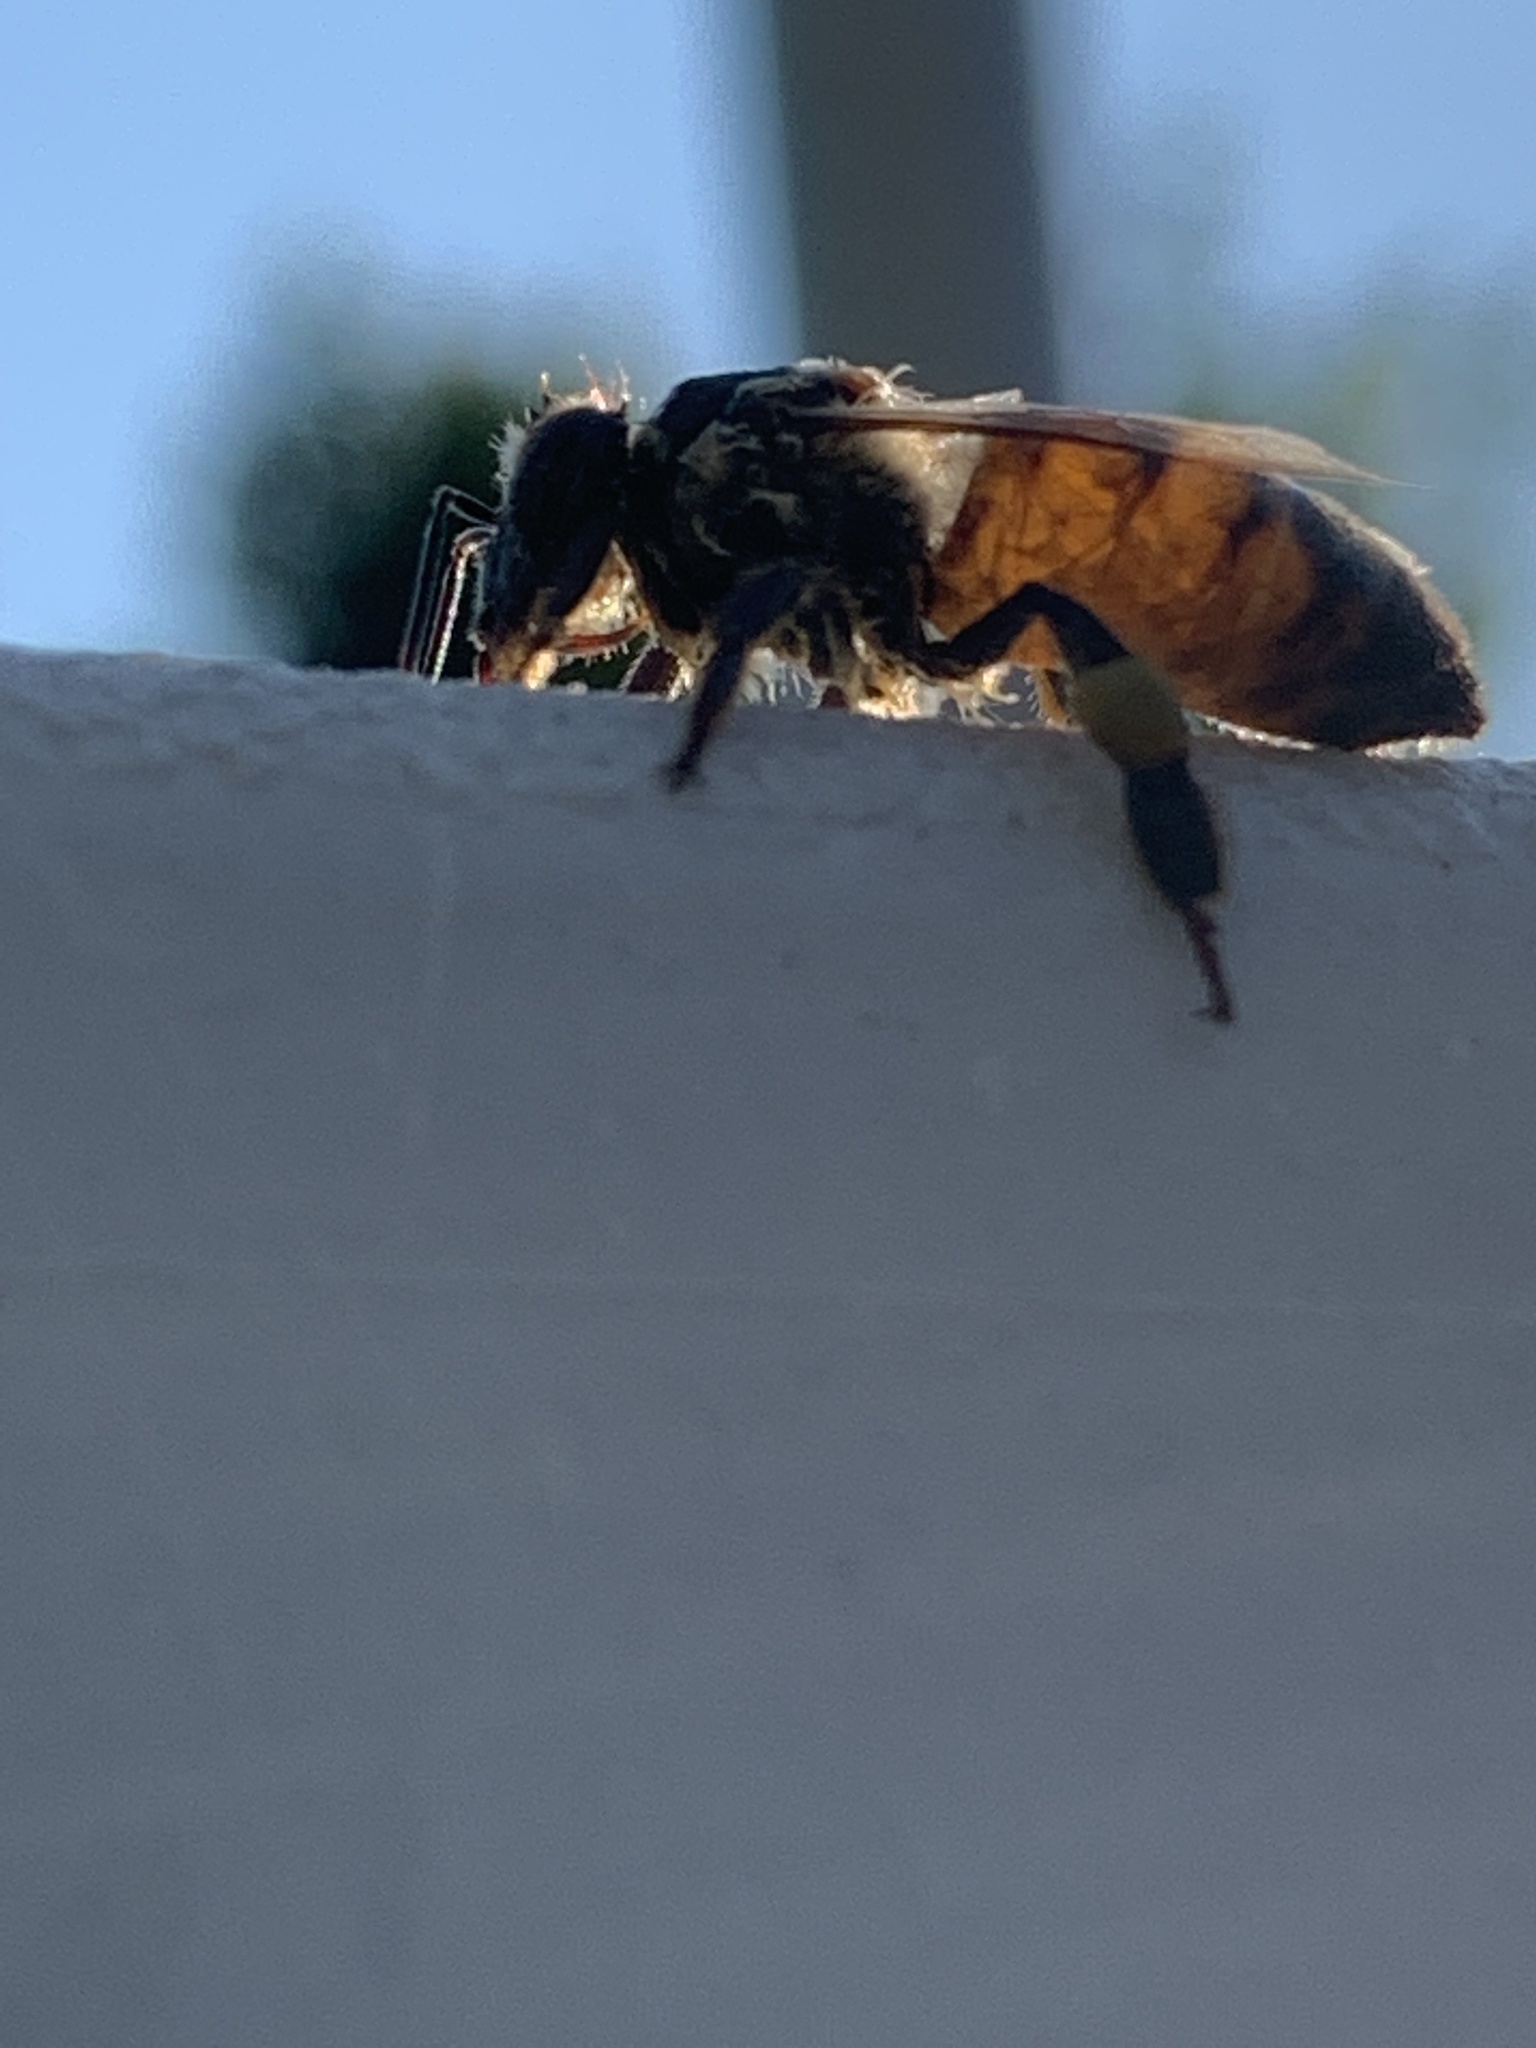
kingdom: Animalia
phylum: Arthropoda
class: Insecta
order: Hymenoptera
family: Apidae
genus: Apis
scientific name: Apis mellifera
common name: Honey bee
